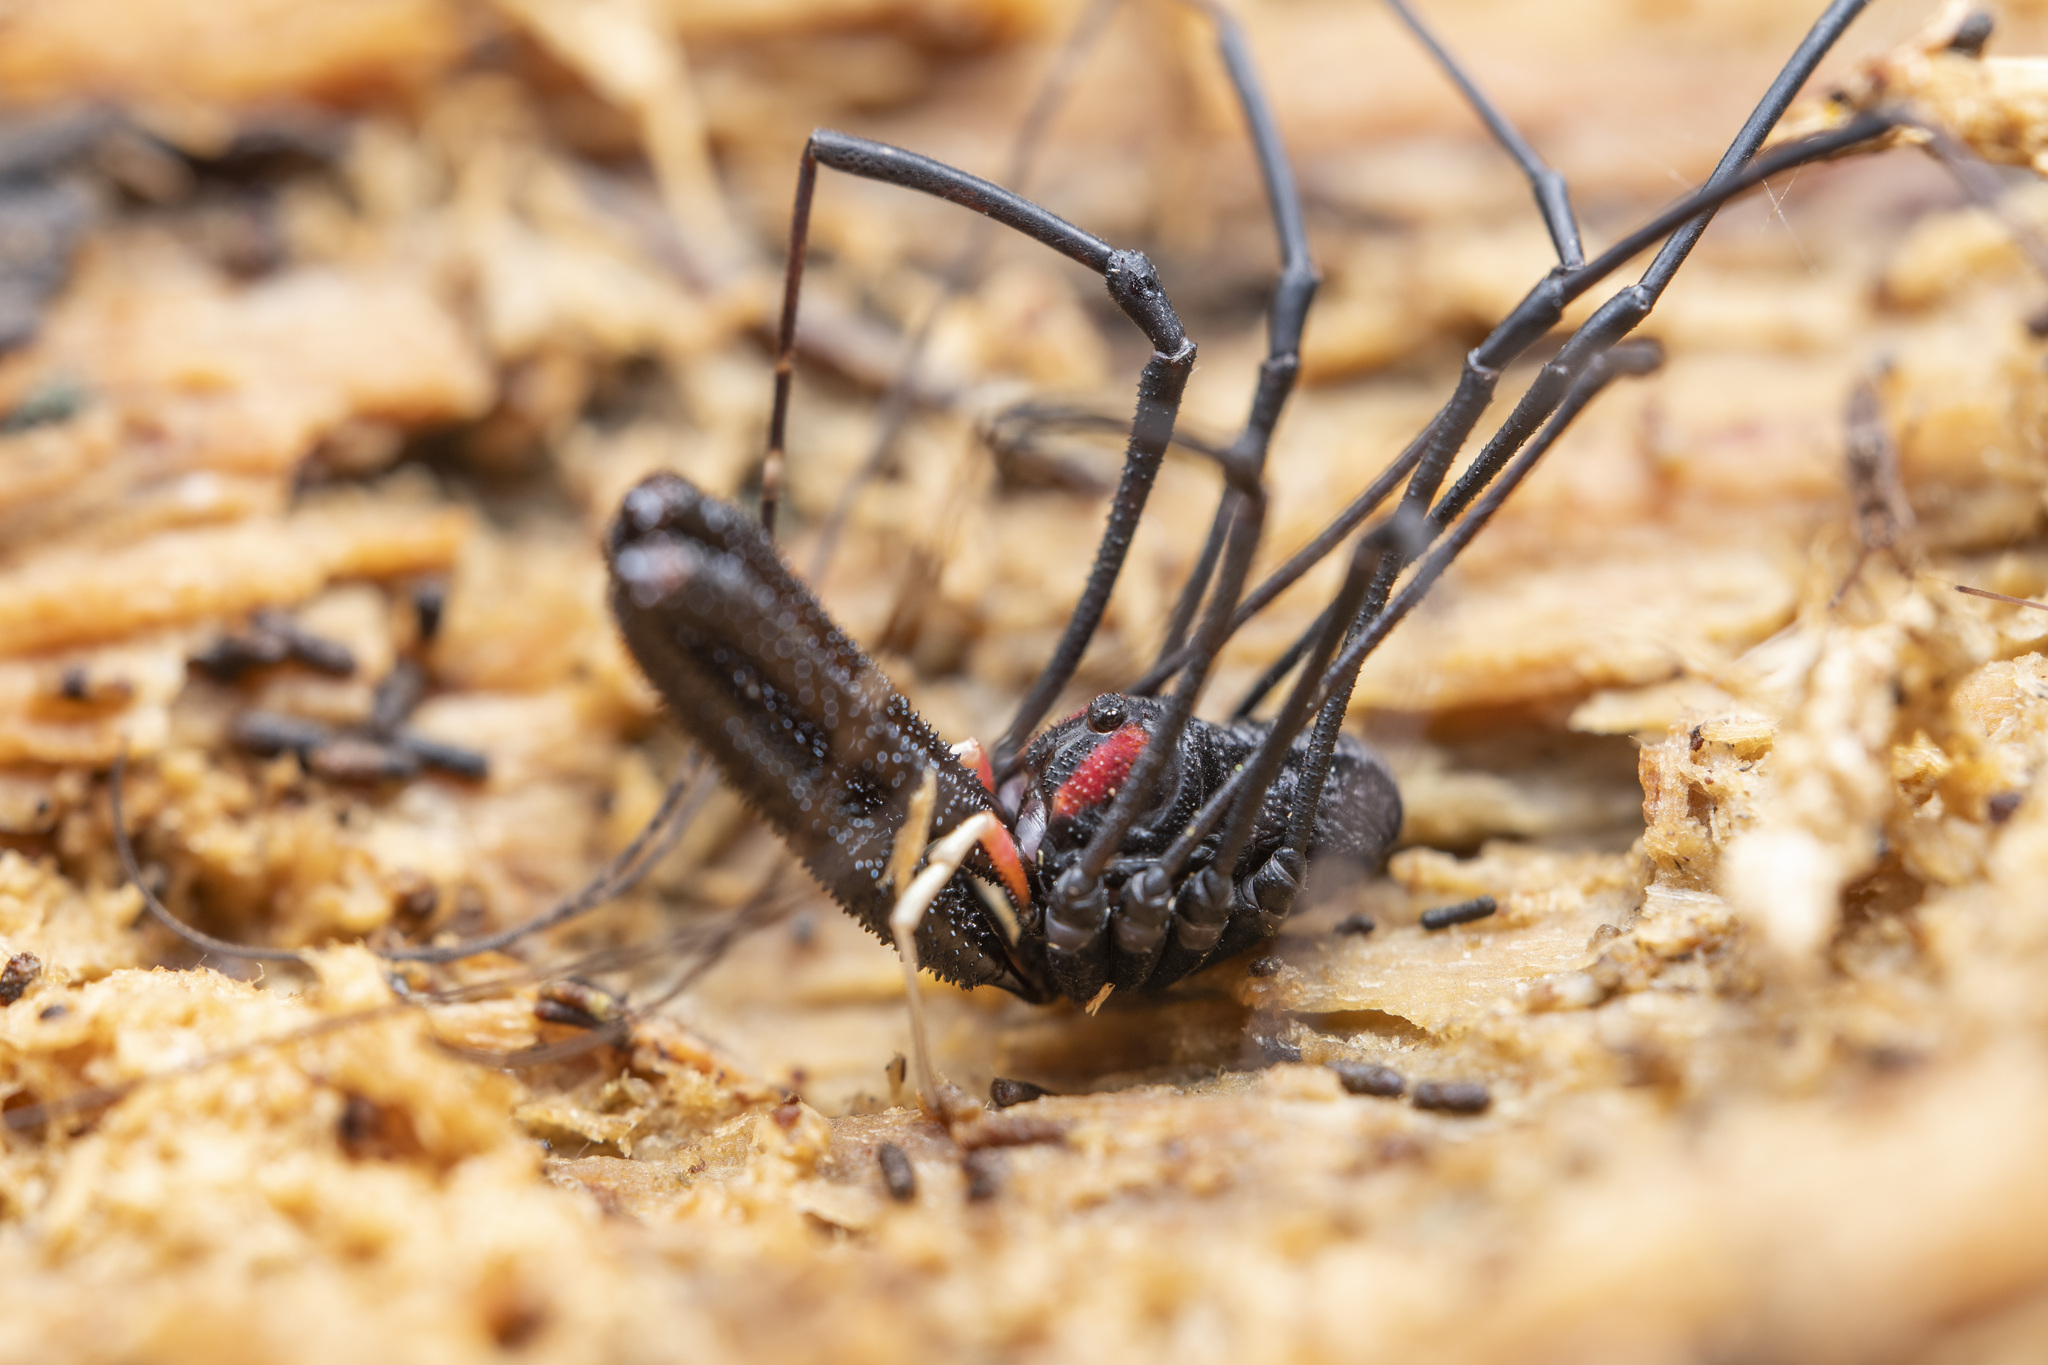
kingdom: Animalia
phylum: Arthropoda
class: Arachnida
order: Opiliones
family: Neopilionidae
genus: Forsteropsalis
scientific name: Forsteropsalis inconstans
